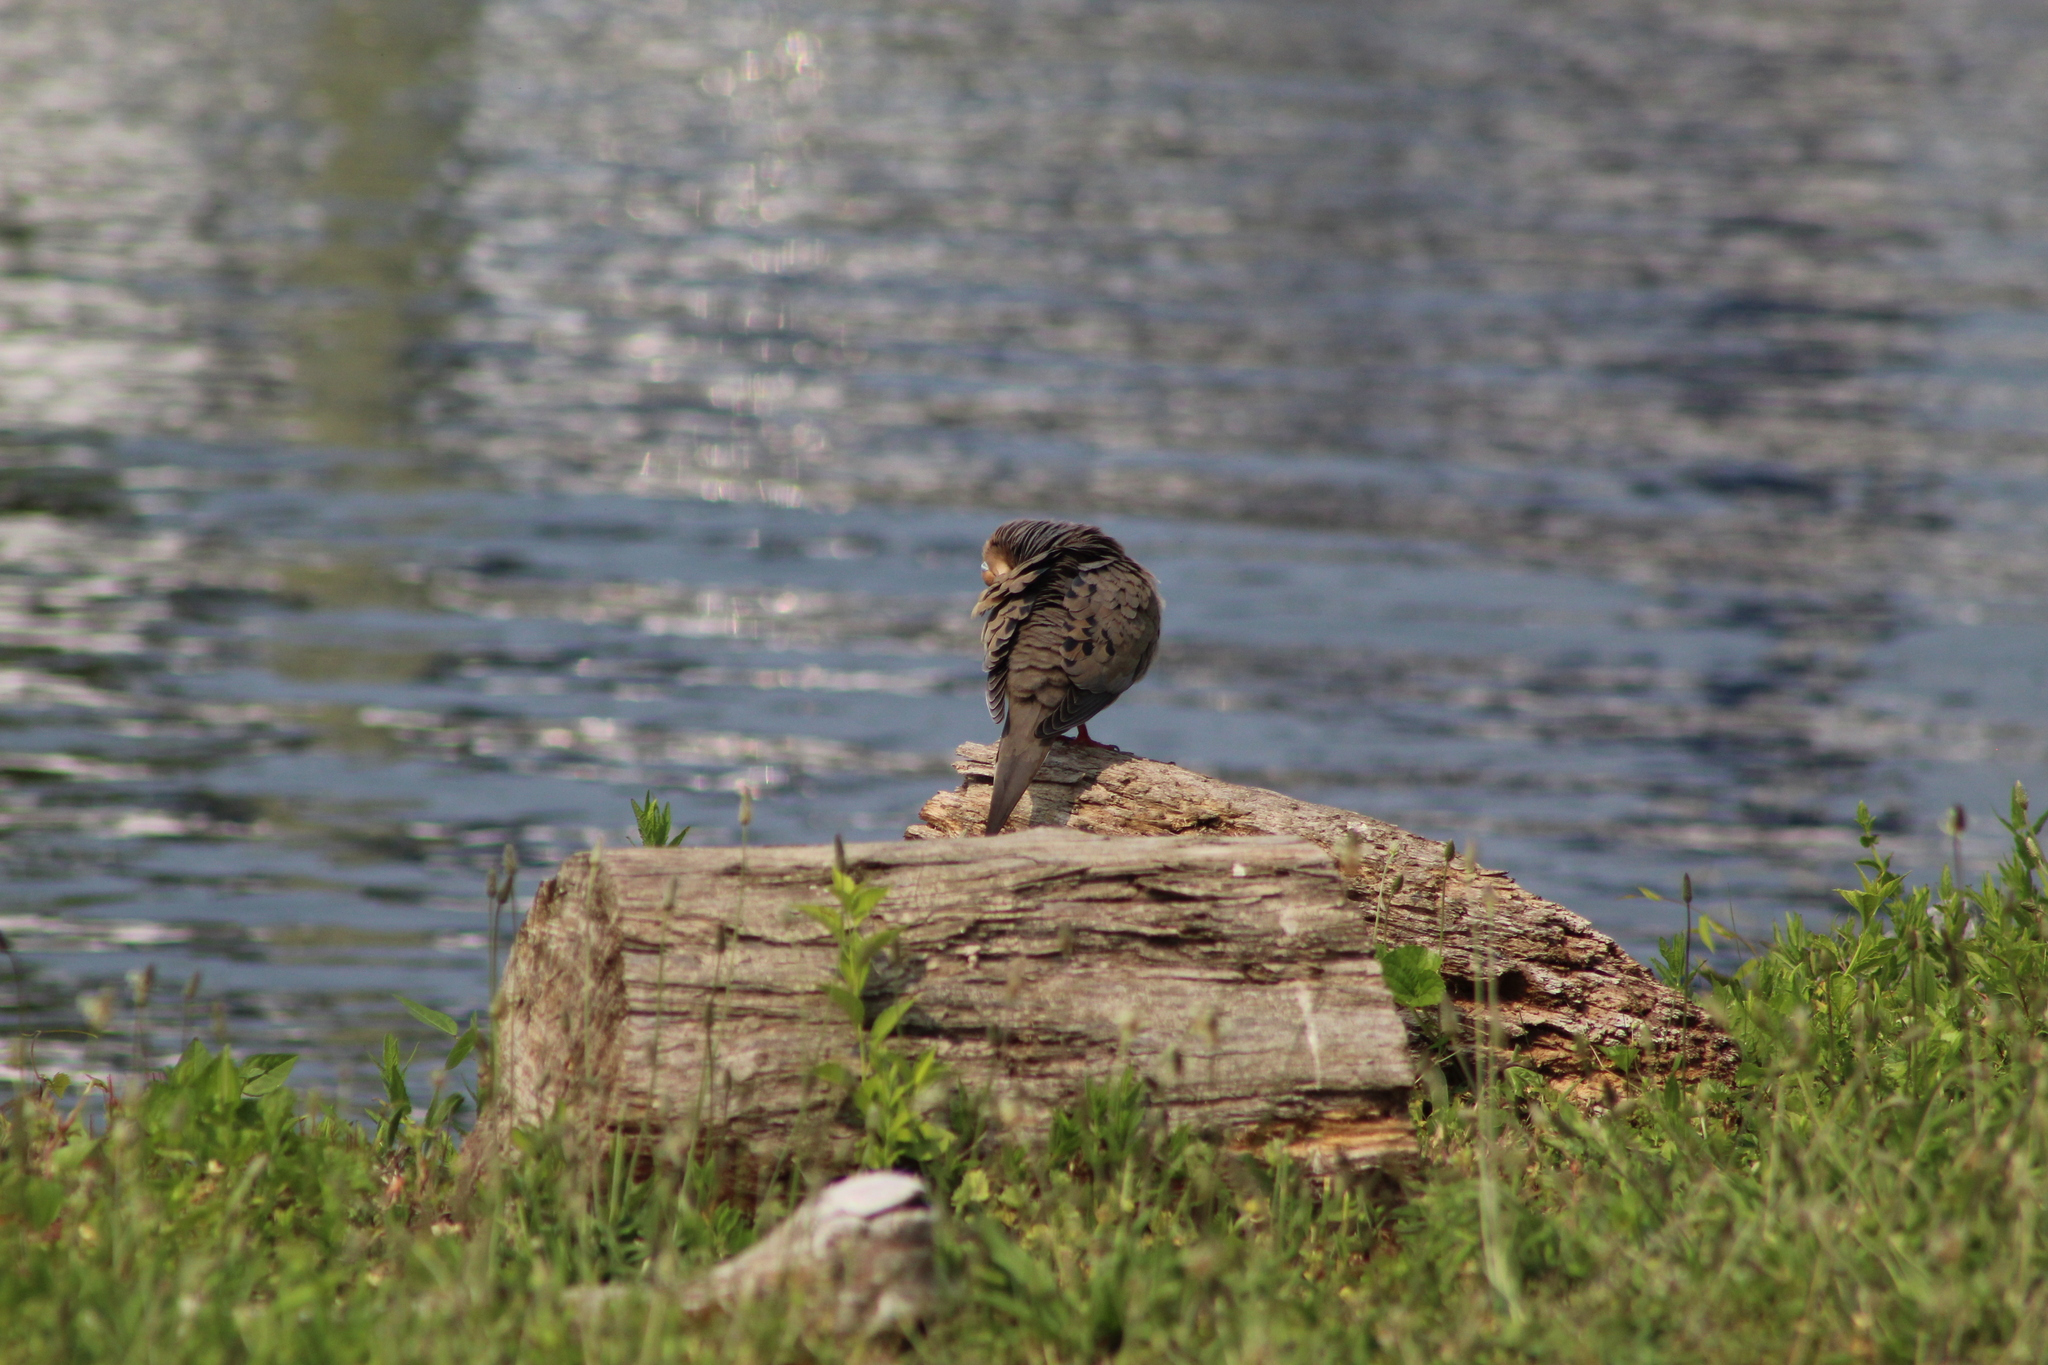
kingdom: Animalia
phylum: Chordata
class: Aves
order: Columbiformes
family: Columbidae
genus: Zenaida
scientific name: Zenaida macroura
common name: Mourning dove
